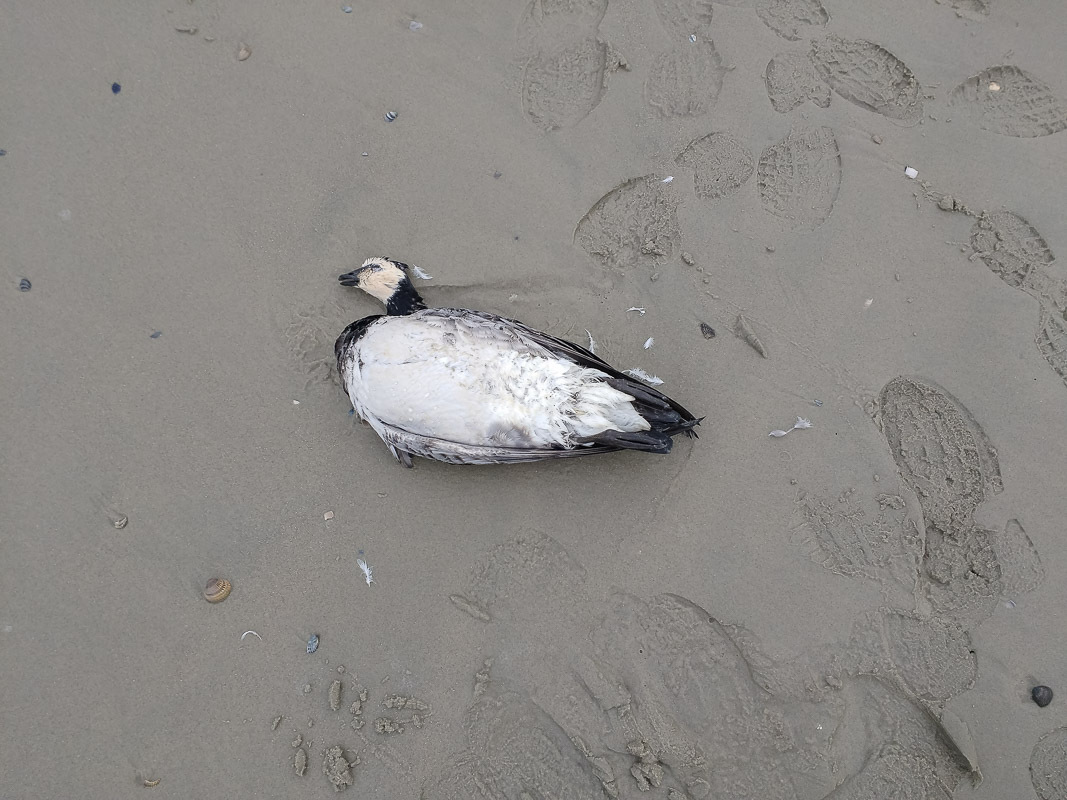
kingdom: Animalia
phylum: Chordata
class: Aves
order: Anseriformes
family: Anatidae
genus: Branta
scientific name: Branta leucopsis
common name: Barnacle goose
